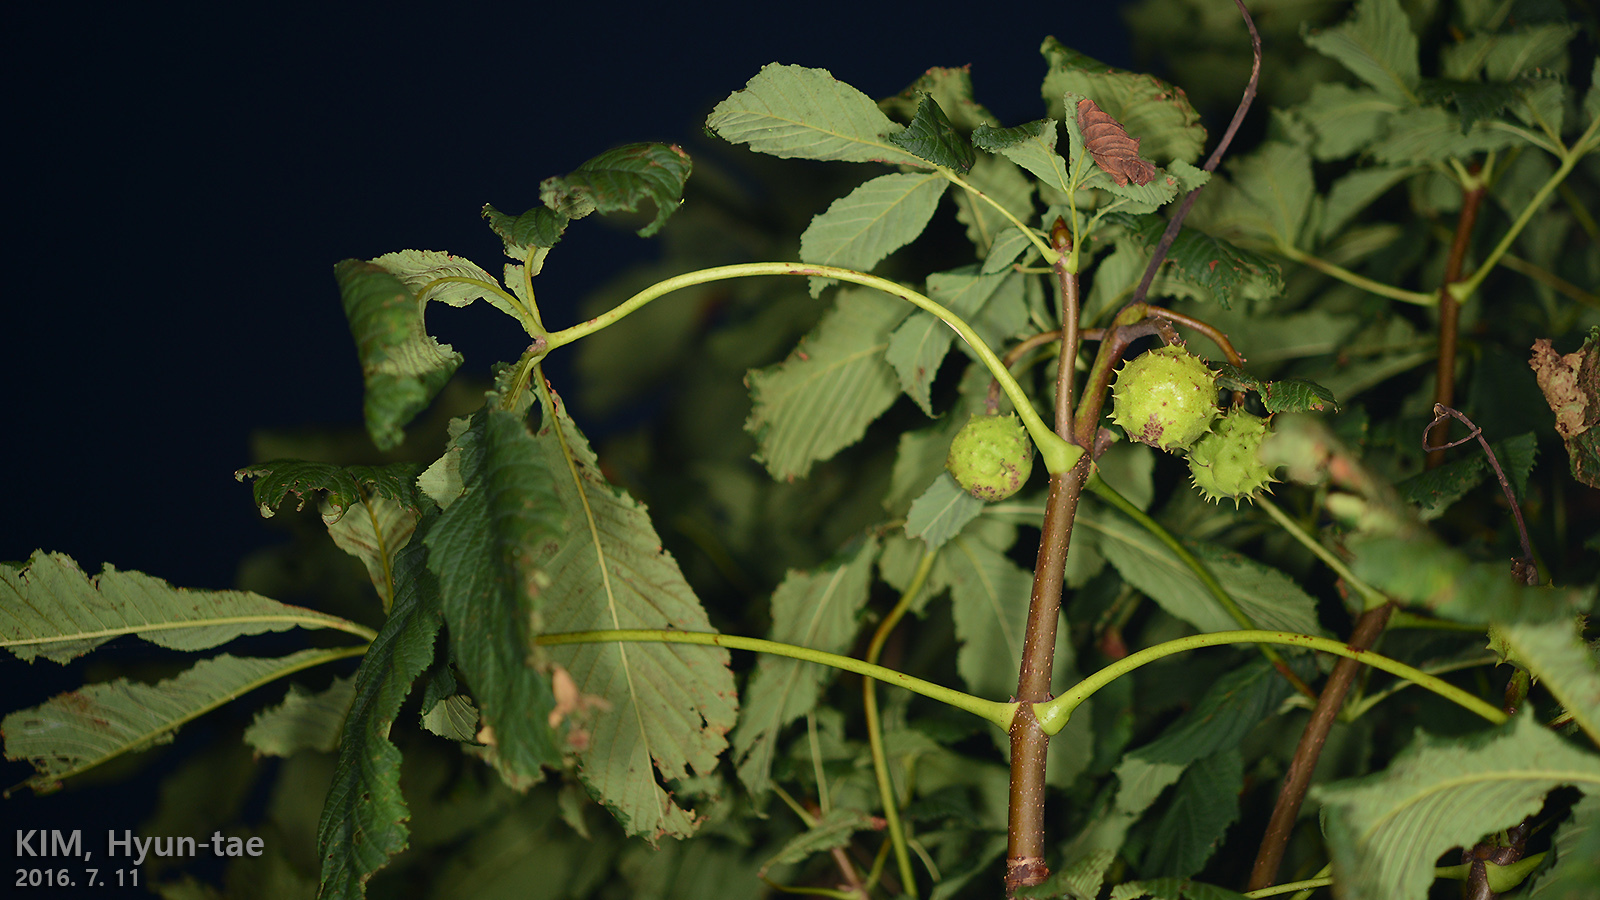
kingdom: Plantae
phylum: Tracheophyta
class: Magnoliopsida
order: Sapindales
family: Sapindaceae
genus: Aesculus
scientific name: Aesculus hippocastanum
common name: Horse-chestnut
